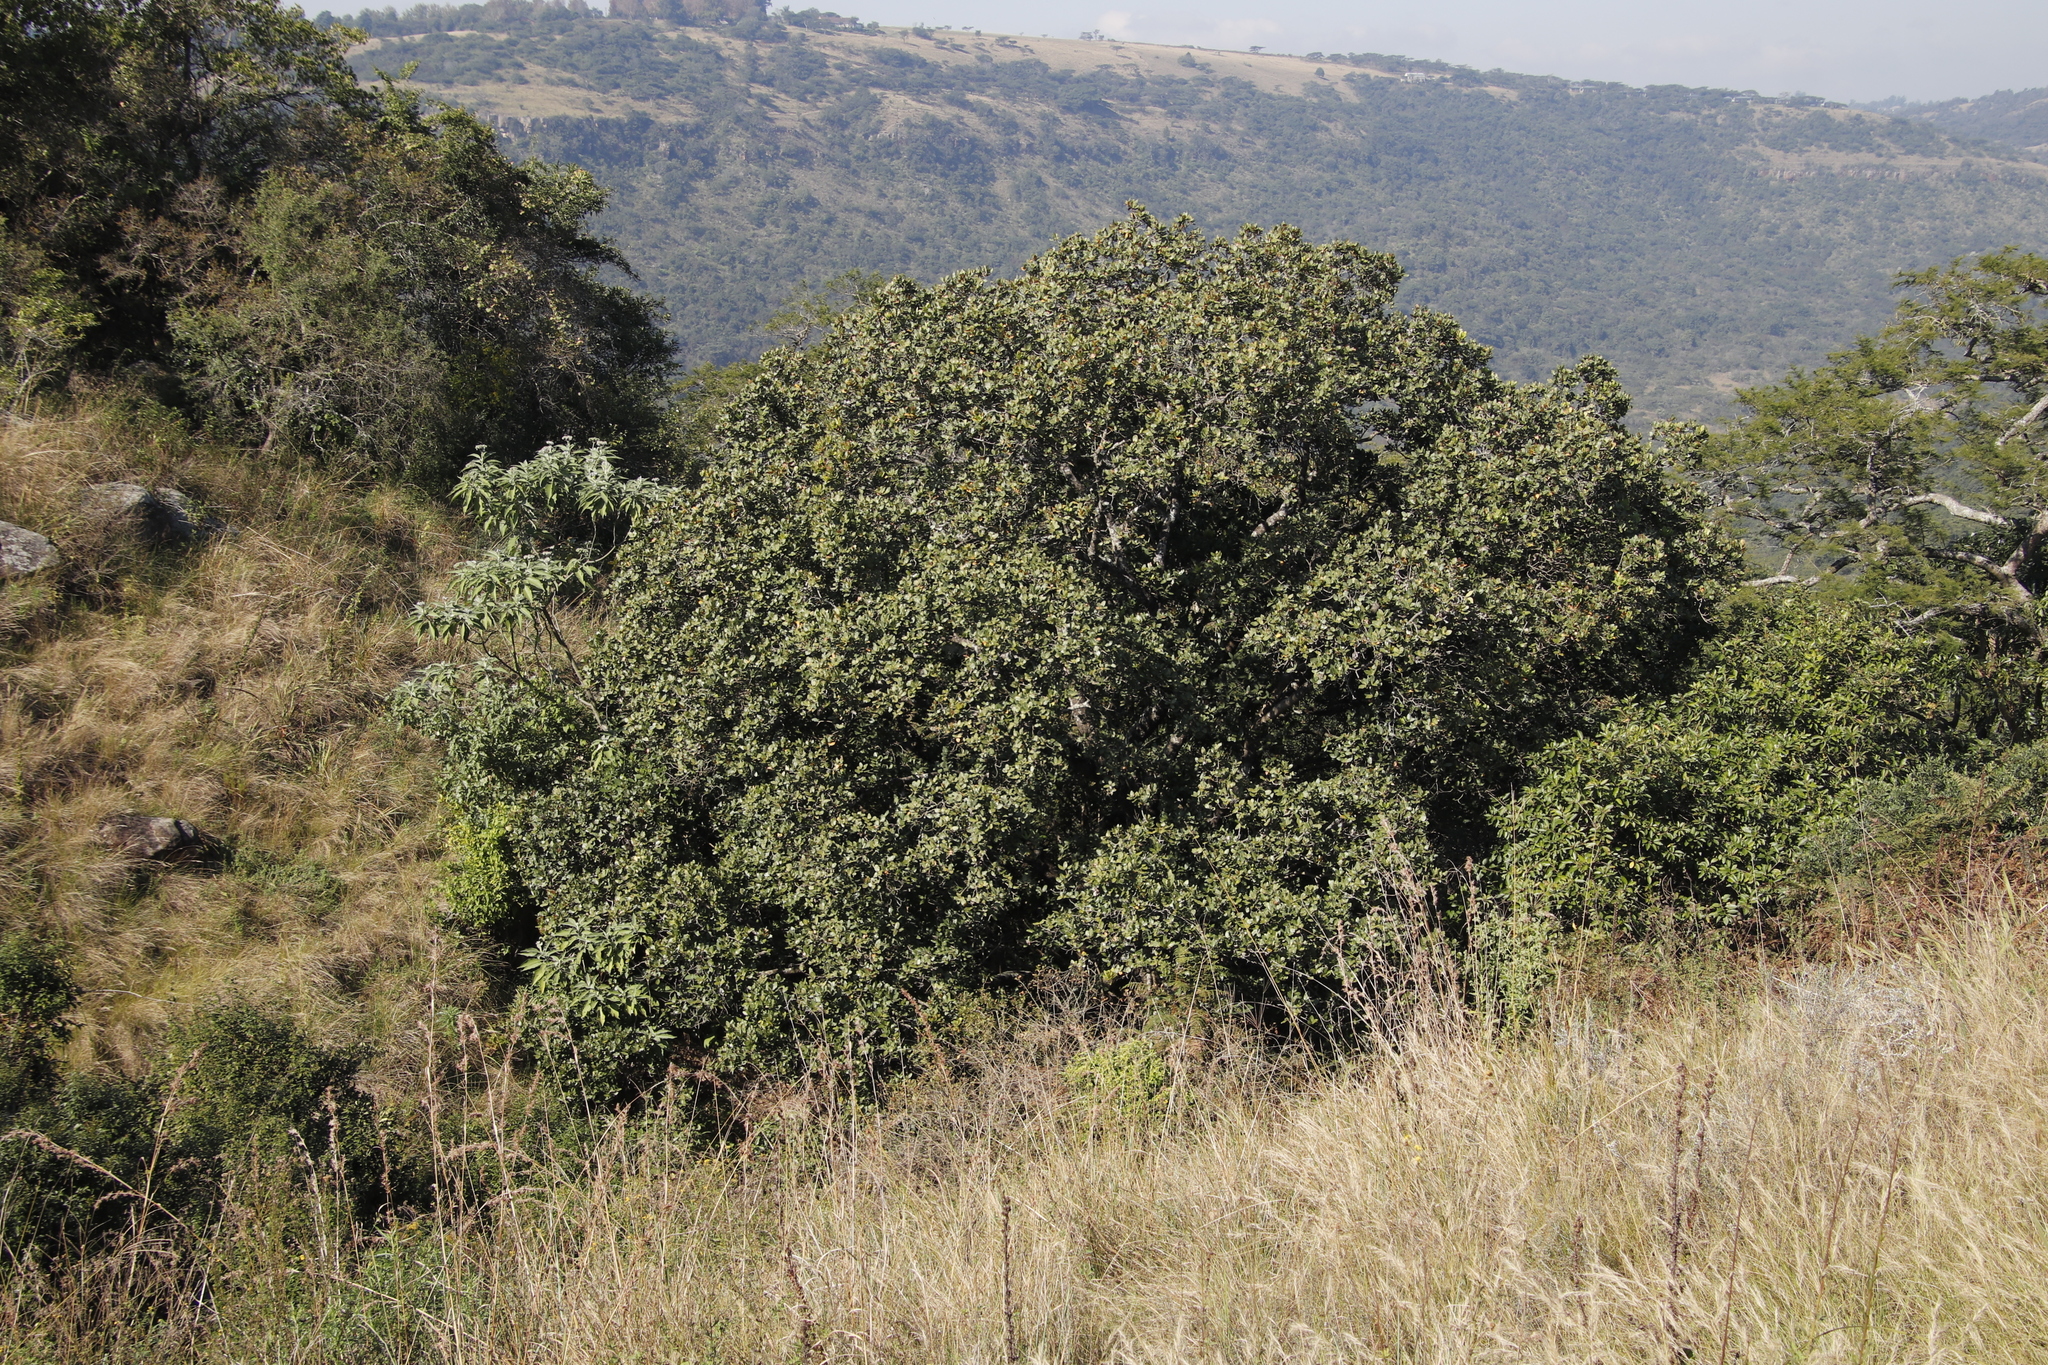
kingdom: Plantae
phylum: Tracheophyta
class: Magnoliopsida
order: Myrtales
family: Myrtaceae
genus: Syzygium
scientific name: Syzygium cordatum
